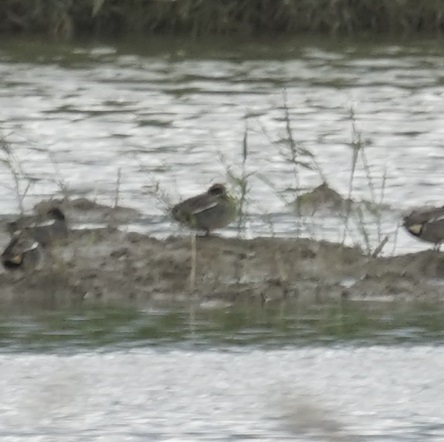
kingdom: Animalia
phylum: Chordata
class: Aves
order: Anseriformes
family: Anatidae
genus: Anas
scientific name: Anas crecca
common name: Eurasian teal
